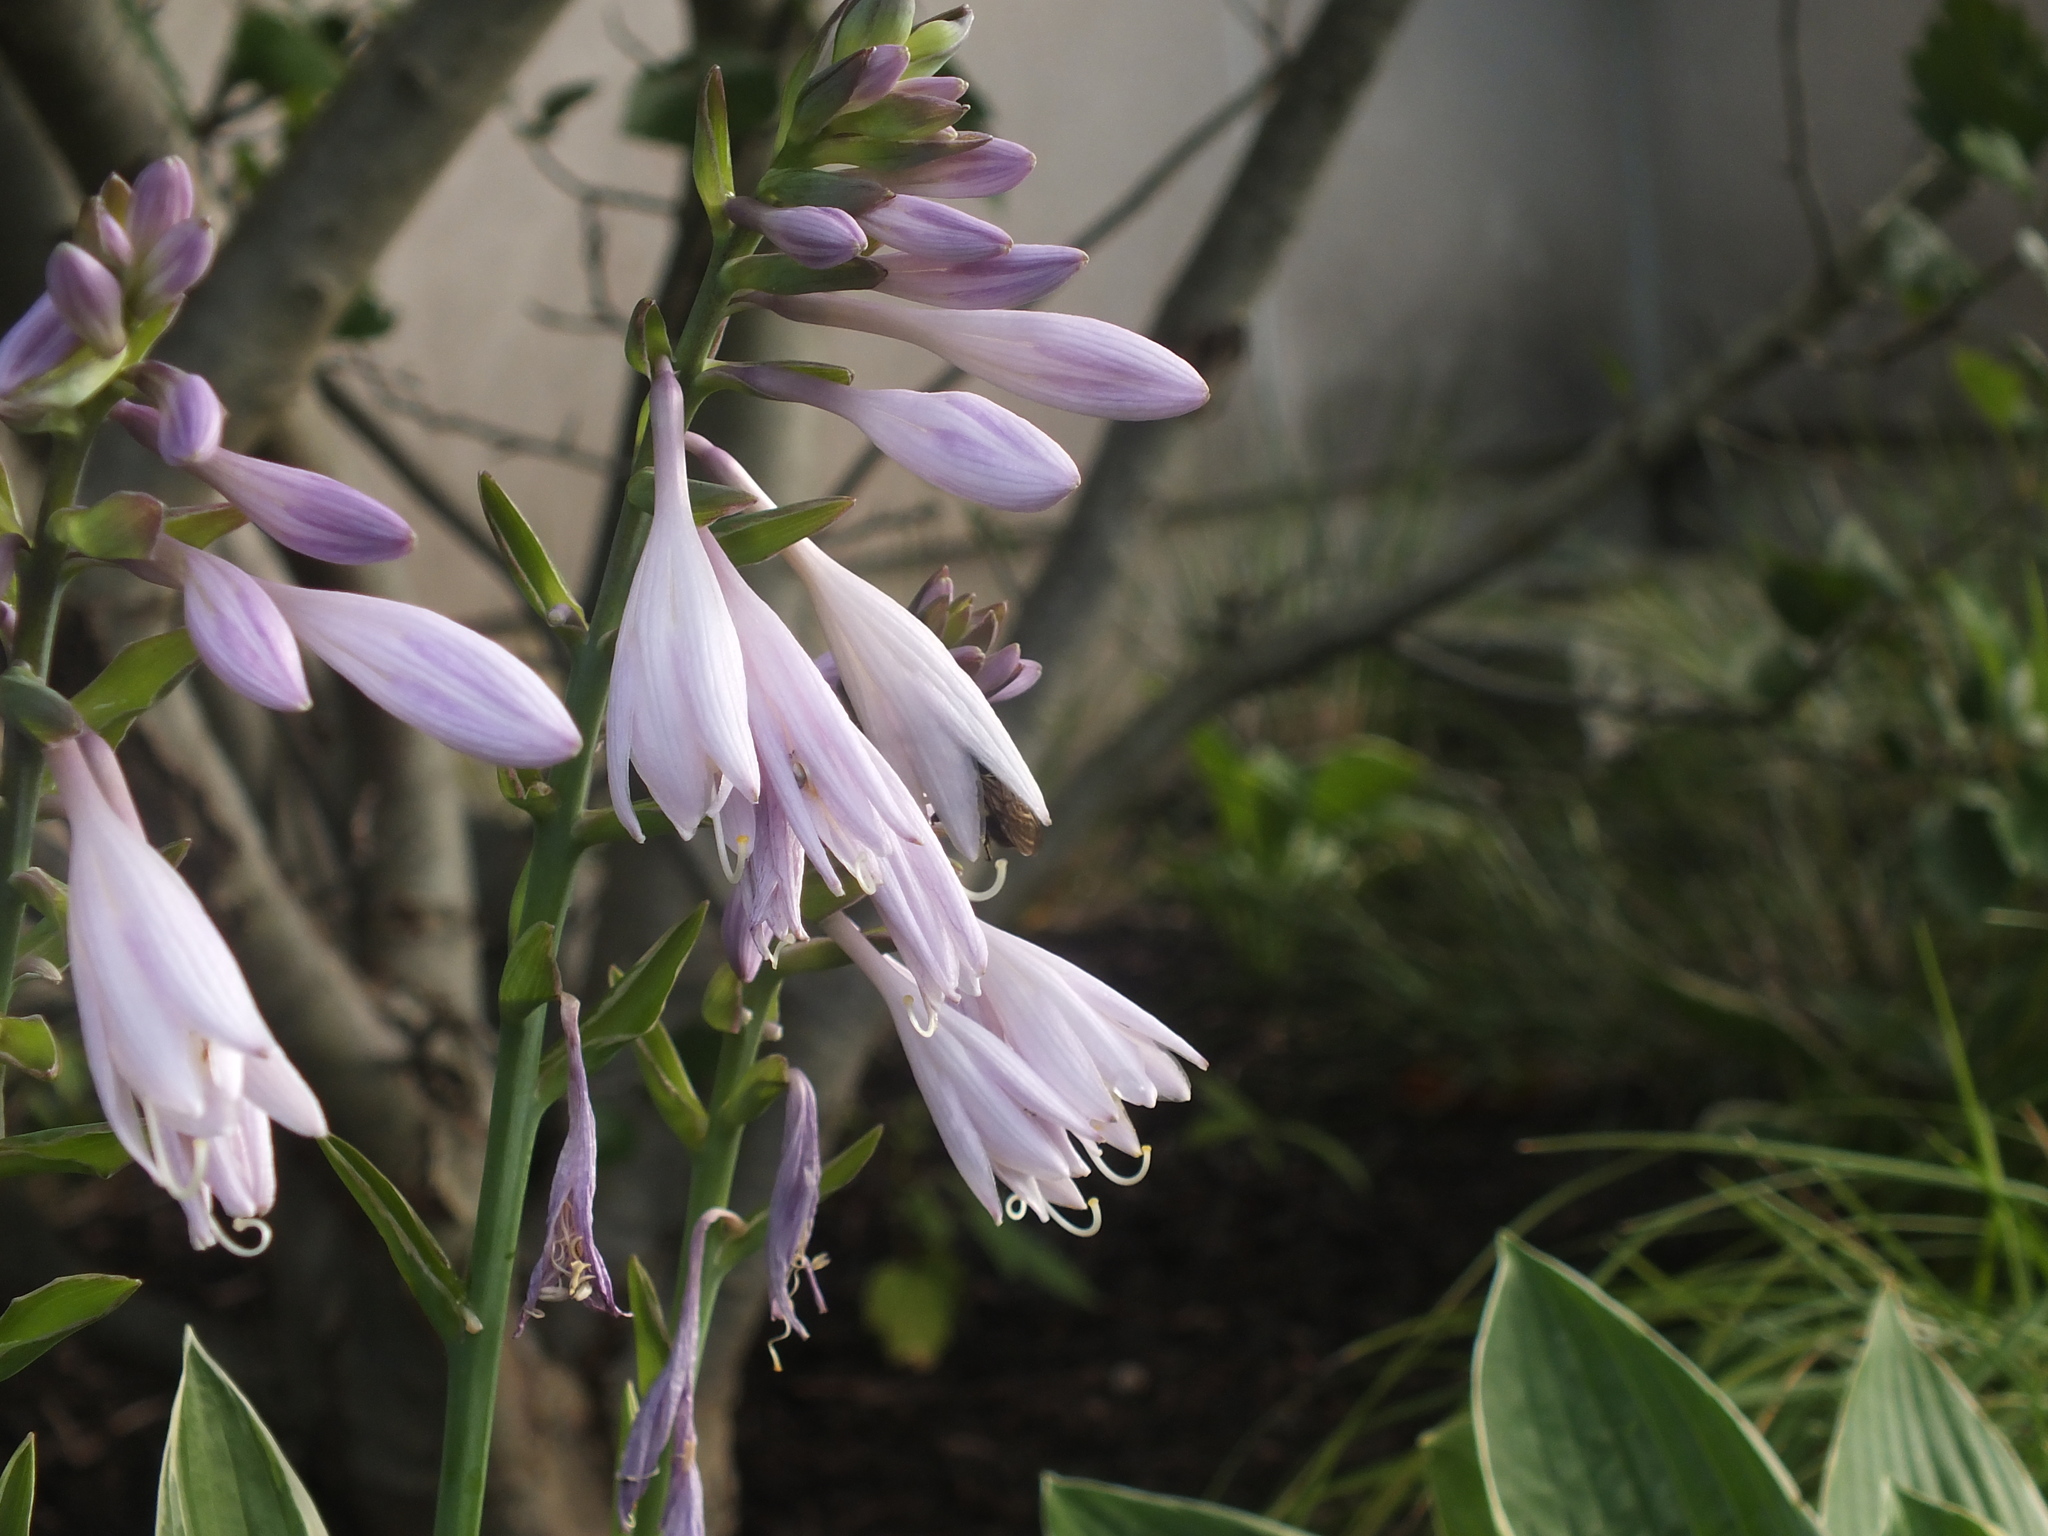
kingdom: Animalia
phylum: Arthropoda
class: Insecta
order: Hymenoptera
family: Apidae
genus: Bombus
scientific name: Bombus impatiens
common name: Common eastern bumble bee
